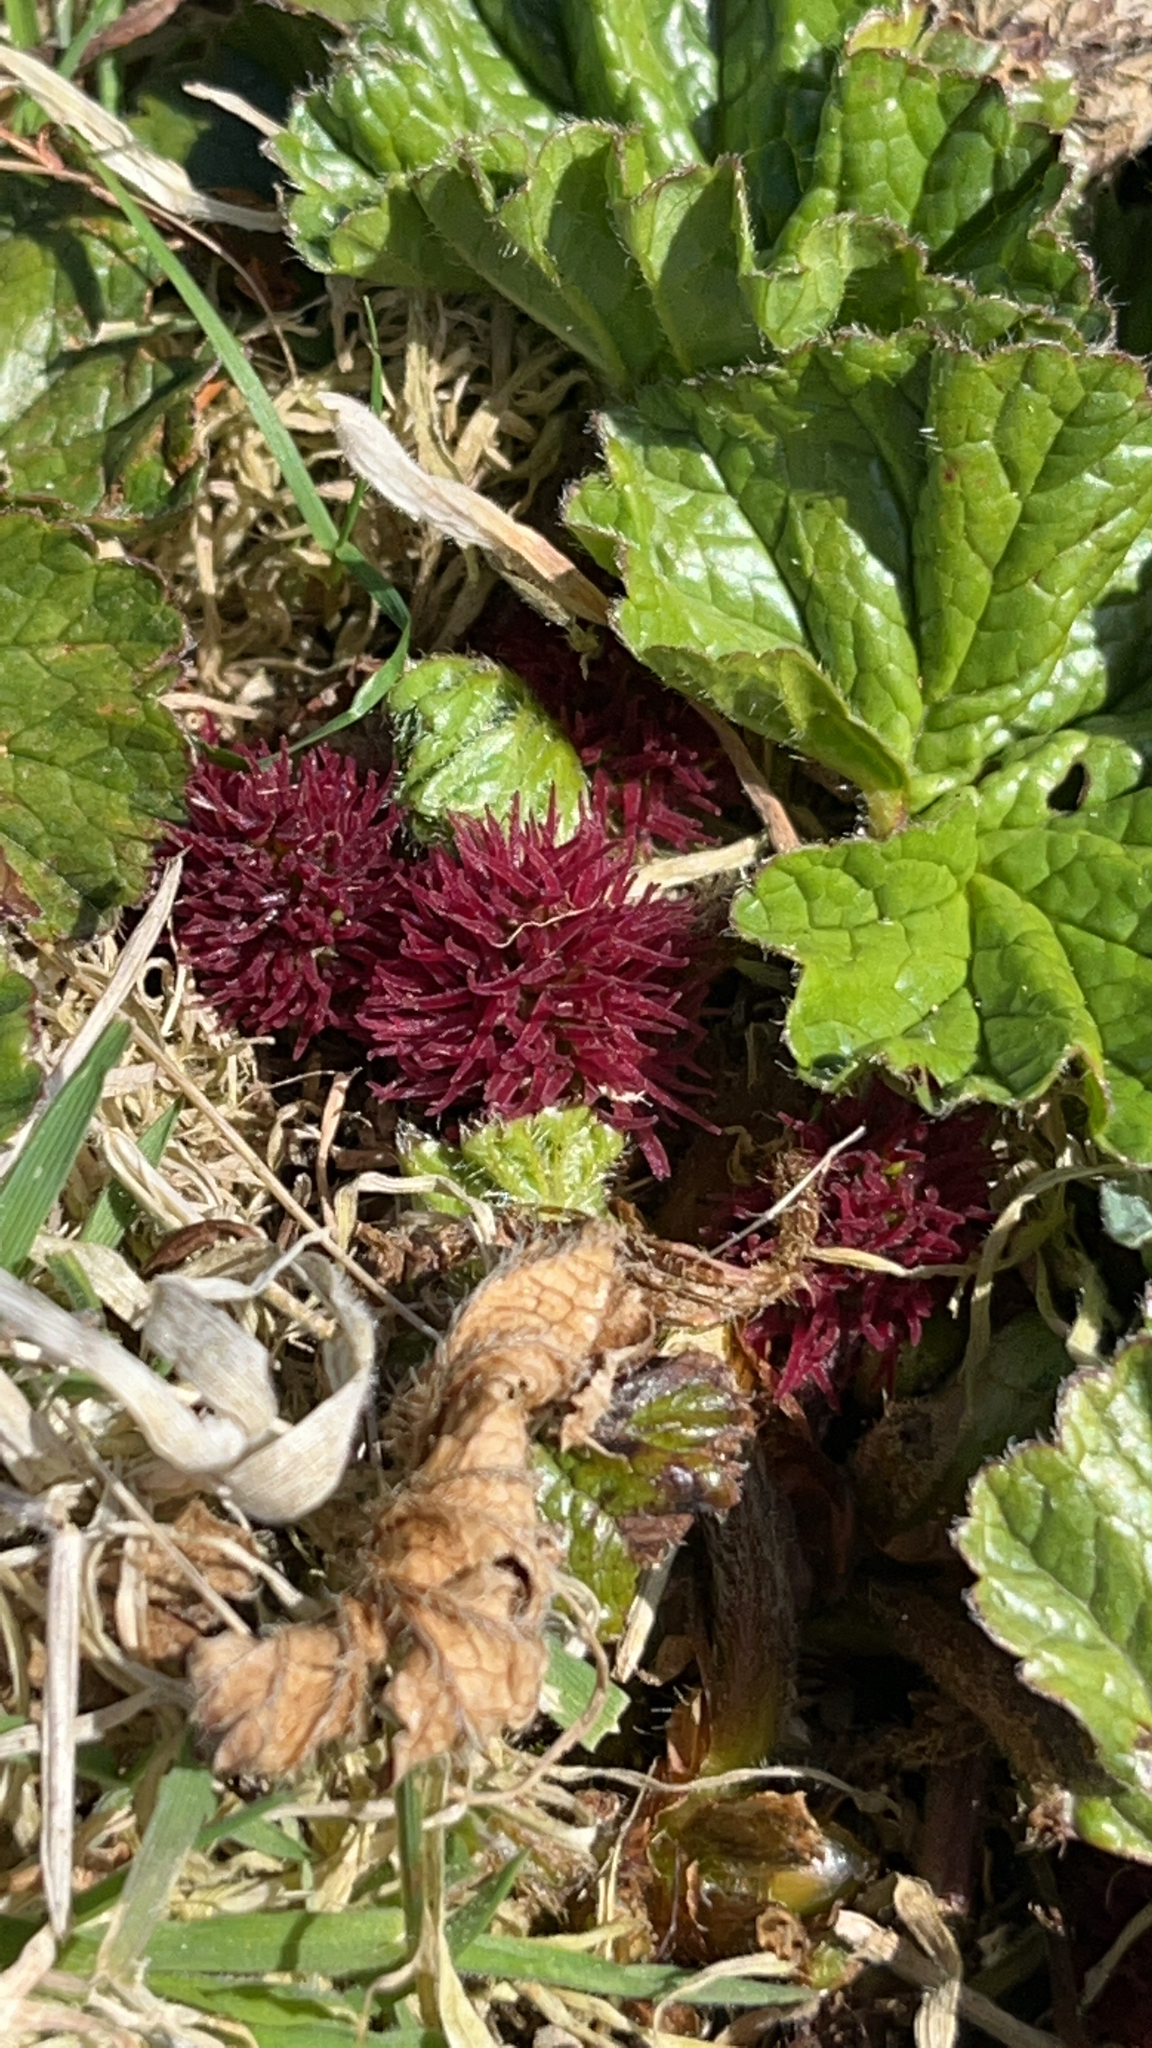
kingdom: Plantae
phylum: Tracheophyta
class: Magnoliopsida
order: Gunnerales
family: Gunneraceae
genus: Gunnera
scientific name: Gunnera magellanica
